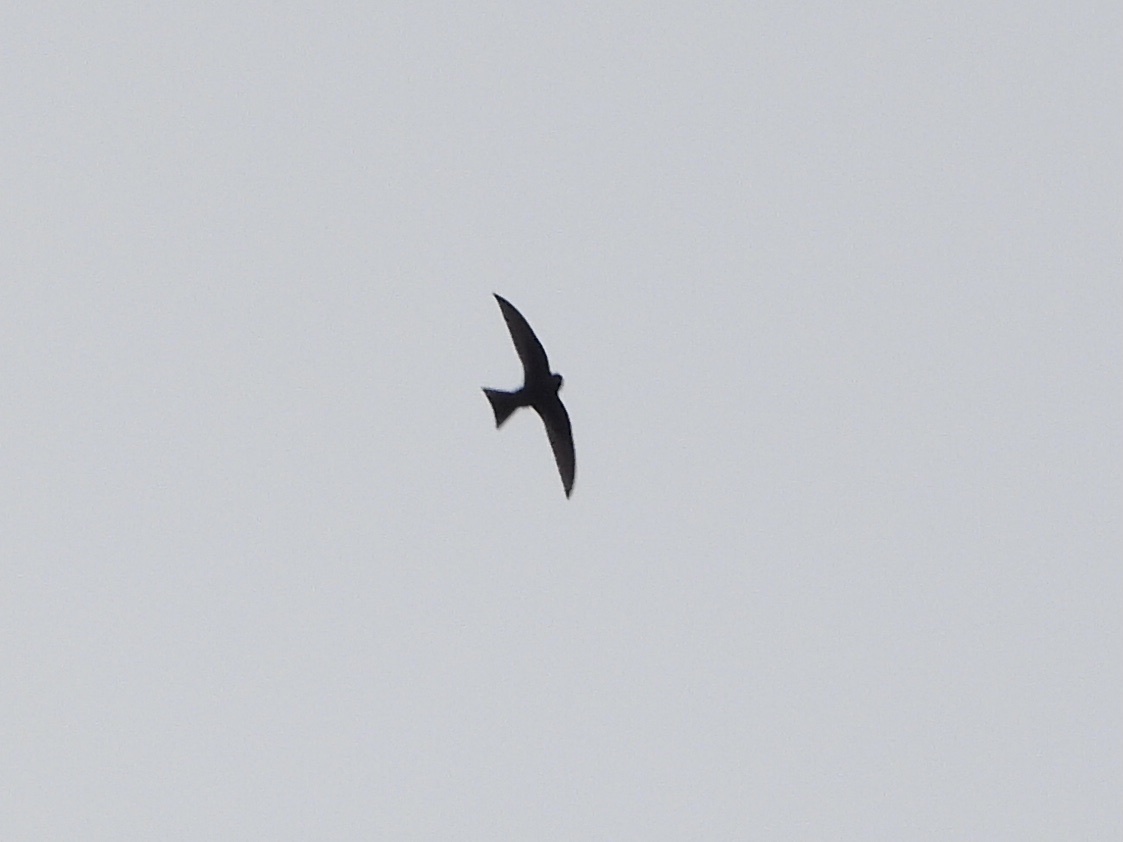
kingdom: Animalia
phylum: Chordata
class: Aves
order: Apodiformes
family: Apodidae
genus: Cypseloides
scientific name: Cypseloides niger
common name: Black swift
